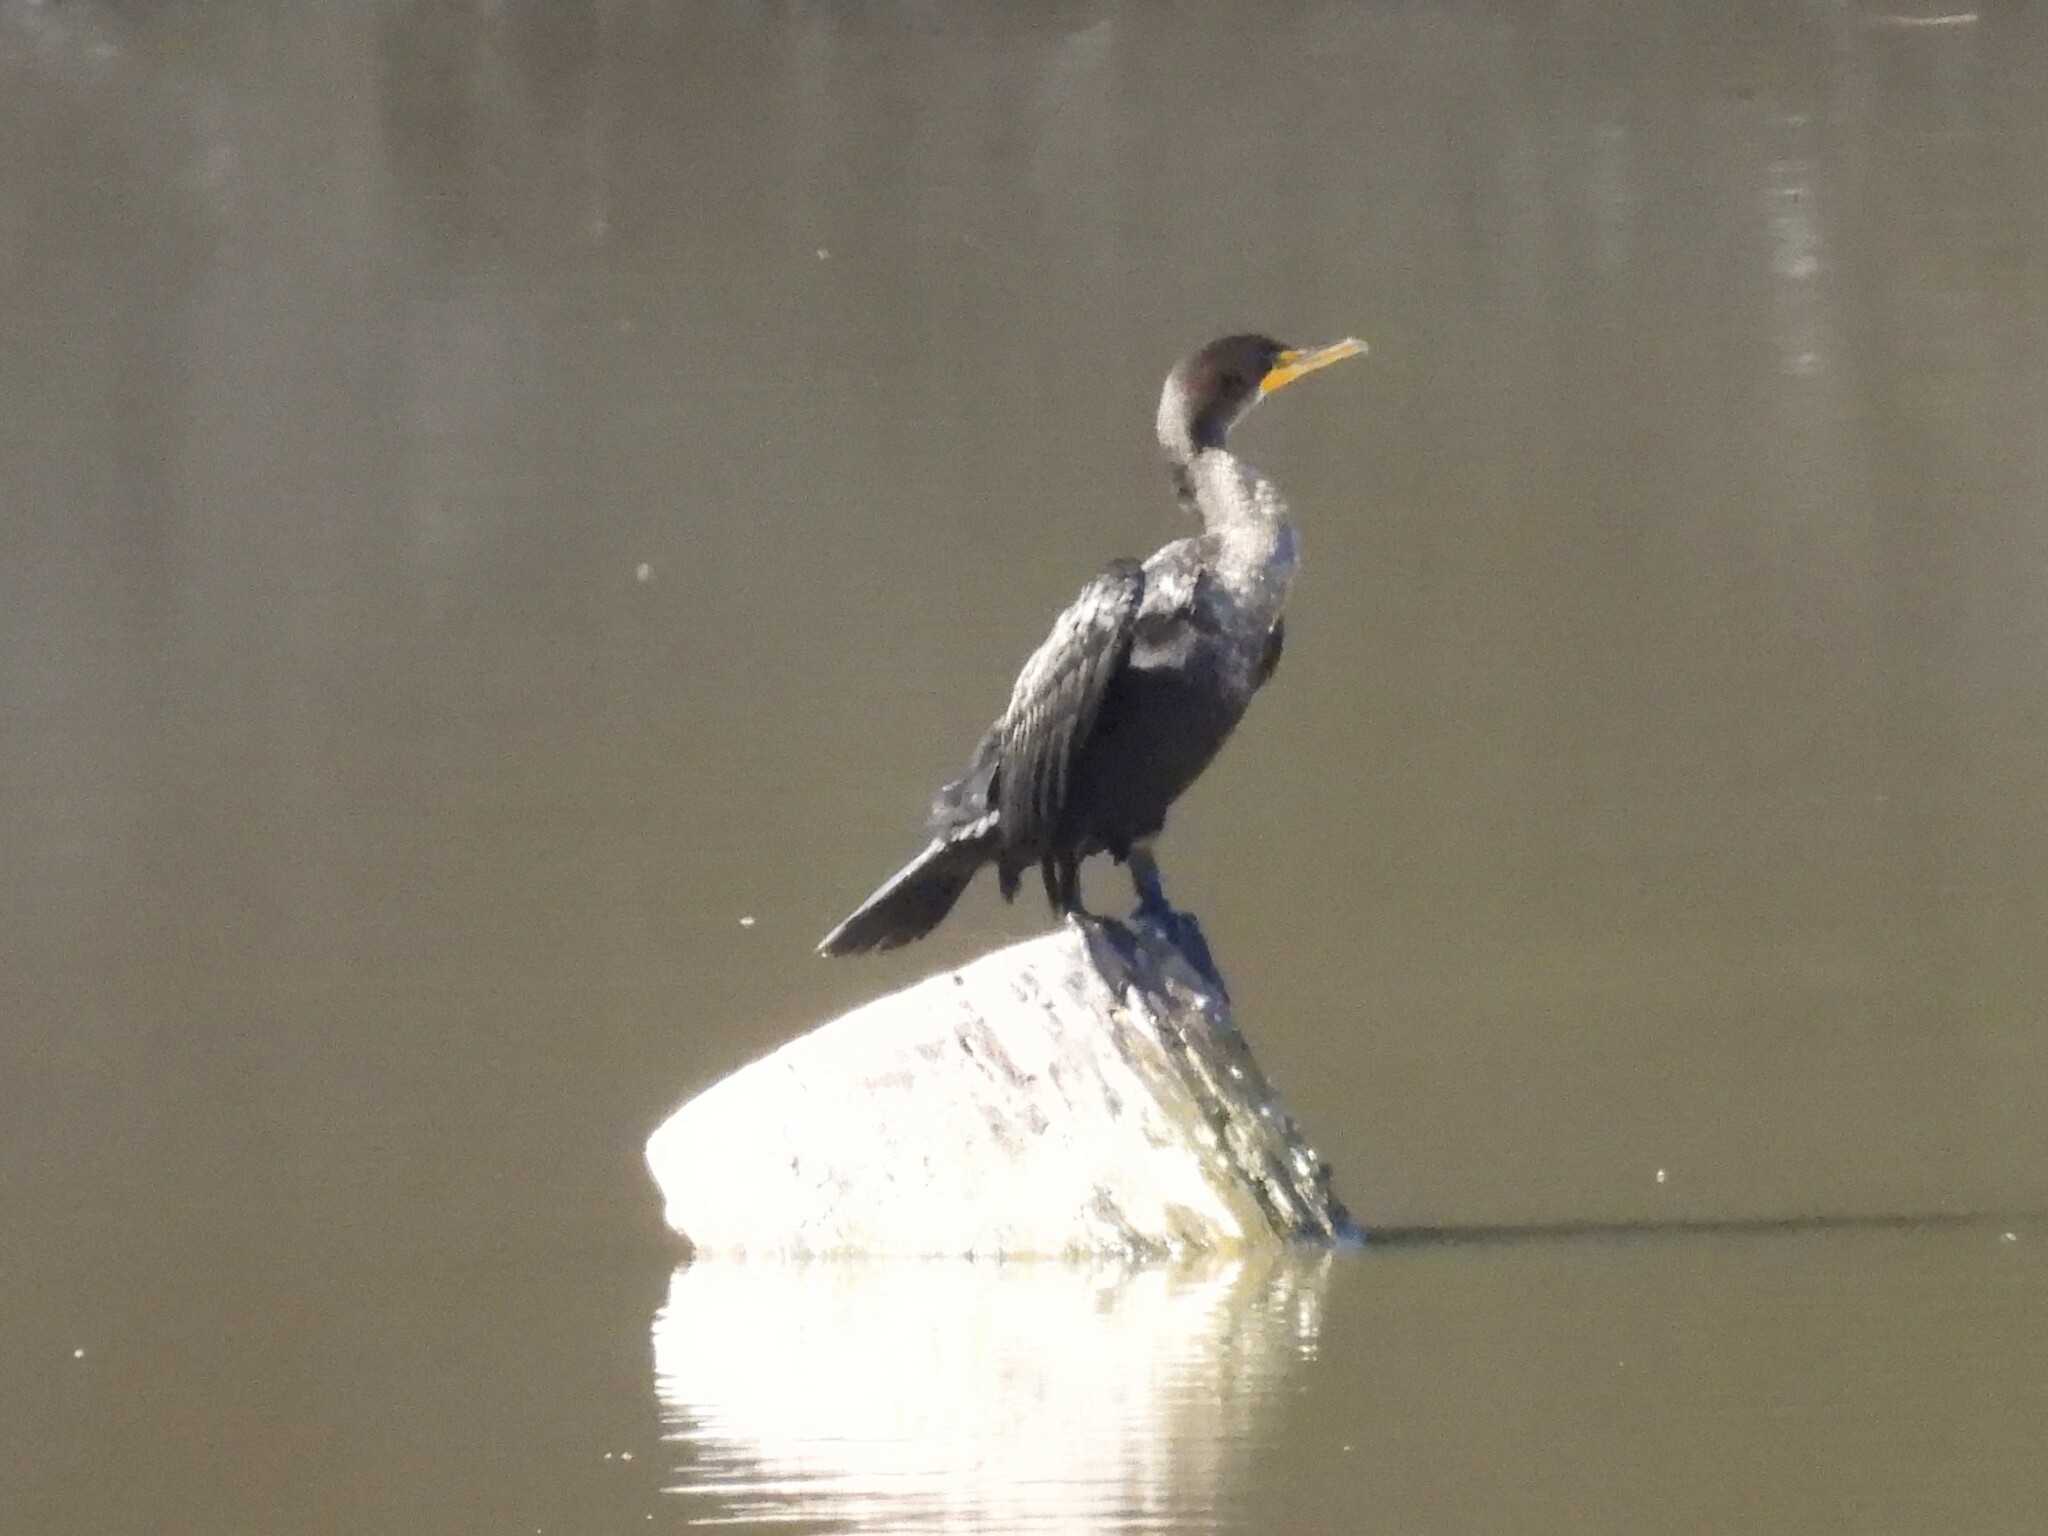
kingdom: Animalia
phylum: Chordata
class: Aves
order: Suliformes
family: Phalacrocoracidae
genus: Phalacrocorax
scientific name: Phalacrocorax auritus
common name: Double-crested cormorant
